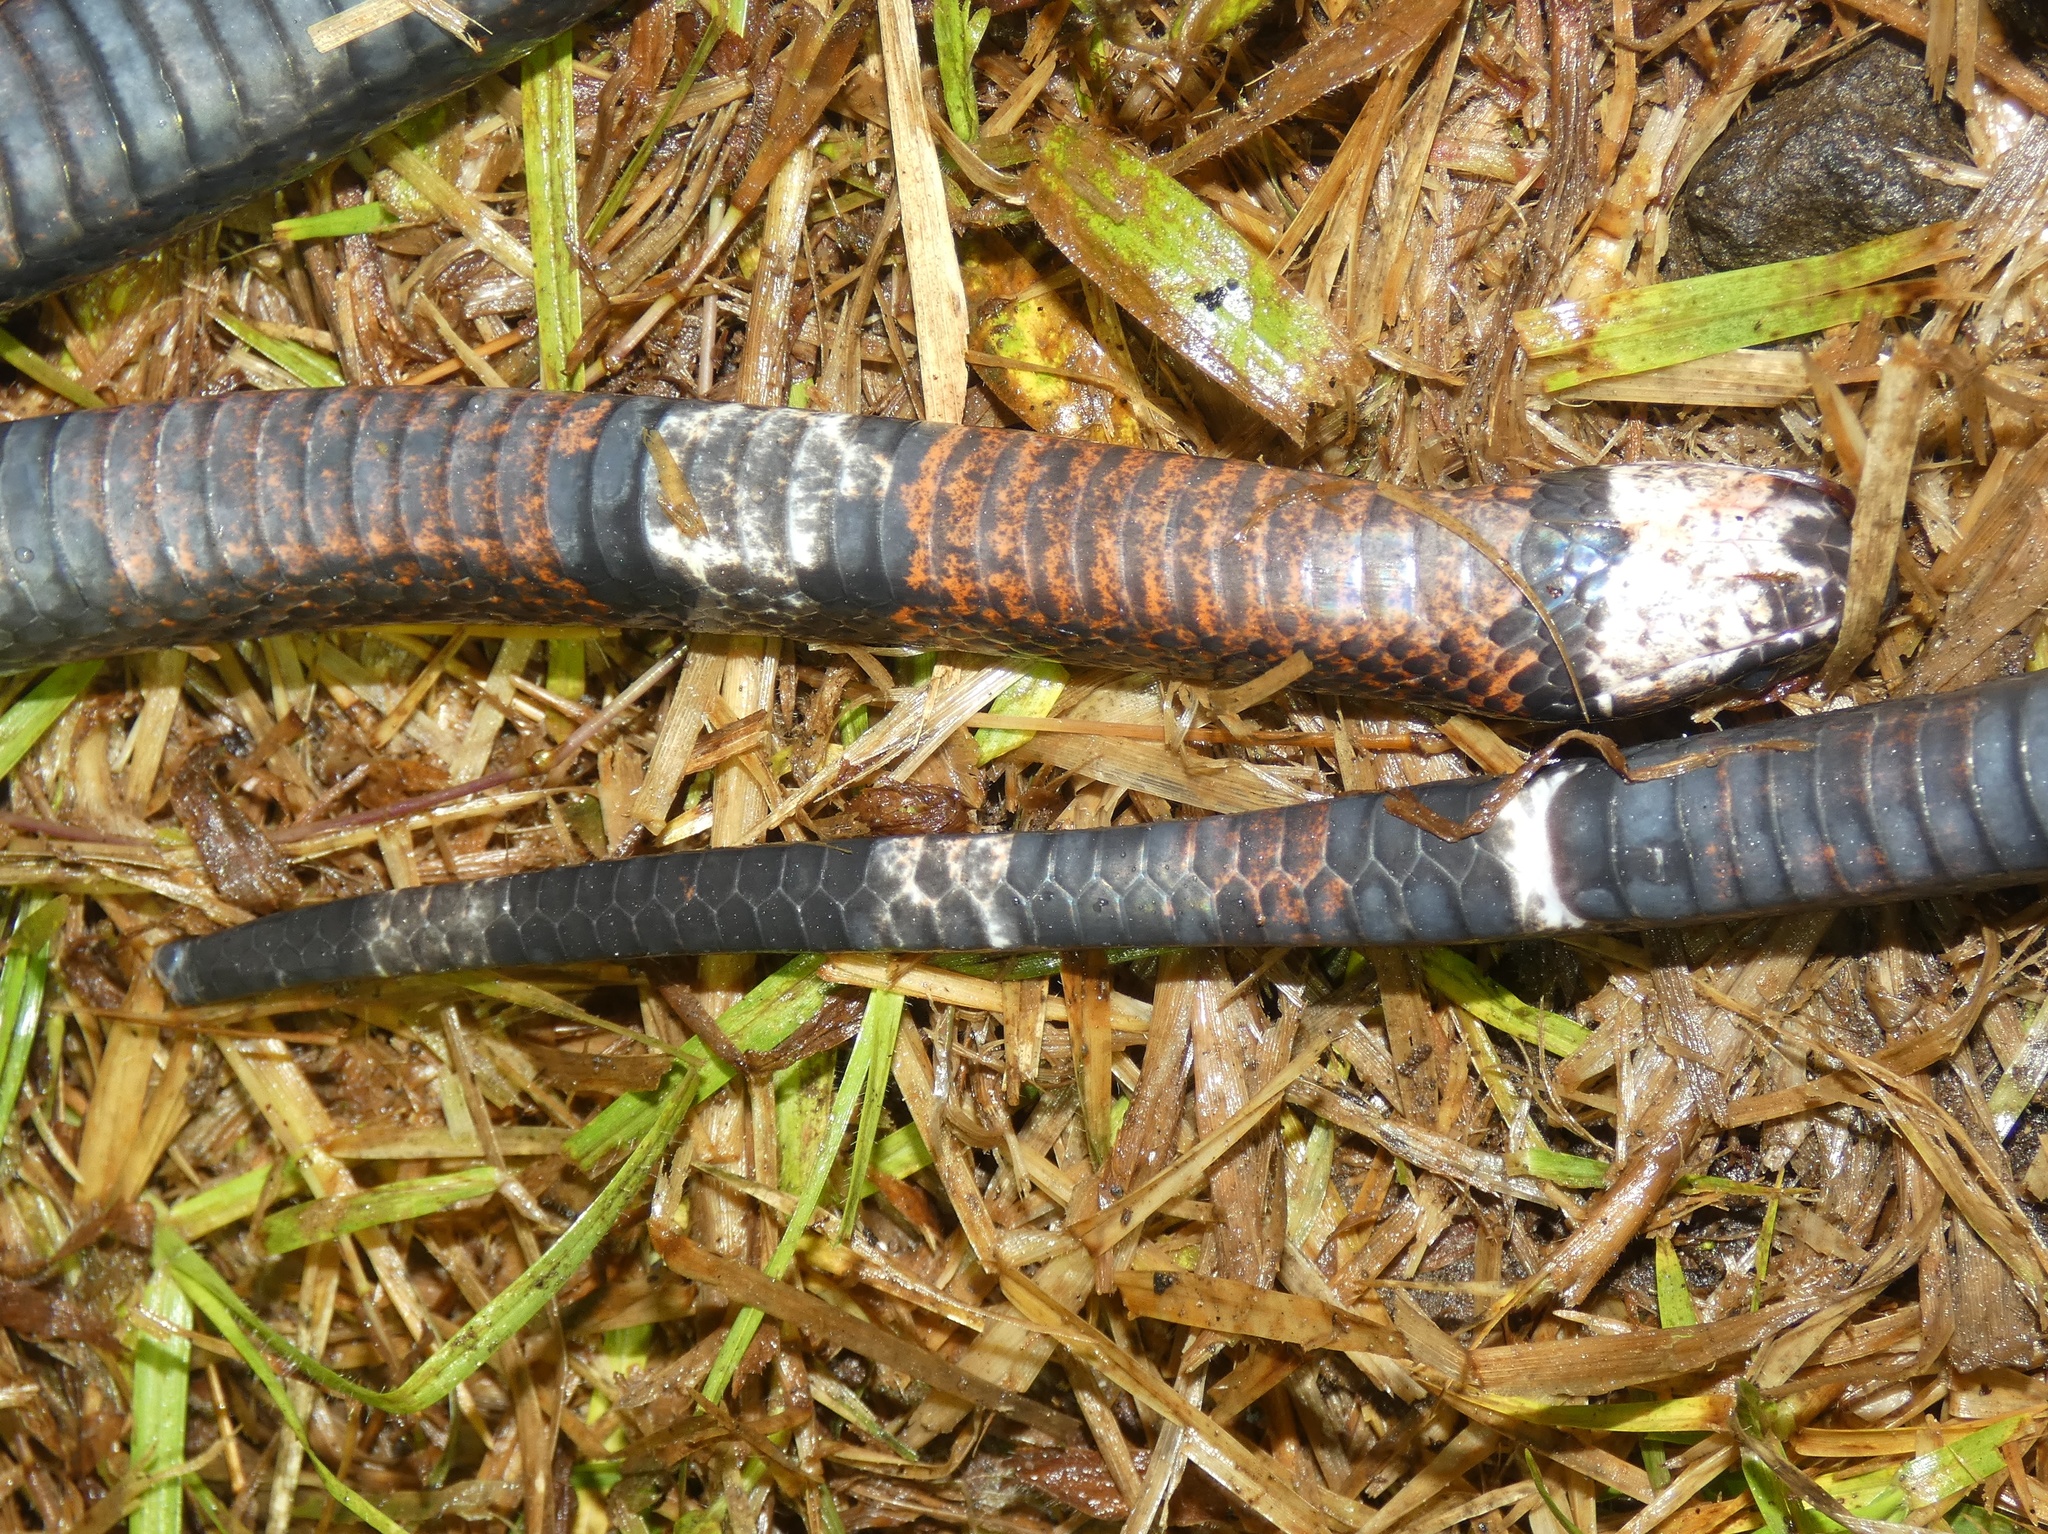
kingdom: Animalia
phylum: Chordata
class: Squamata
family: Colubridae
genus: Lampropeltis
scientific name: Lampropeltis micropholis
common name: Ecuadorian milksnake
